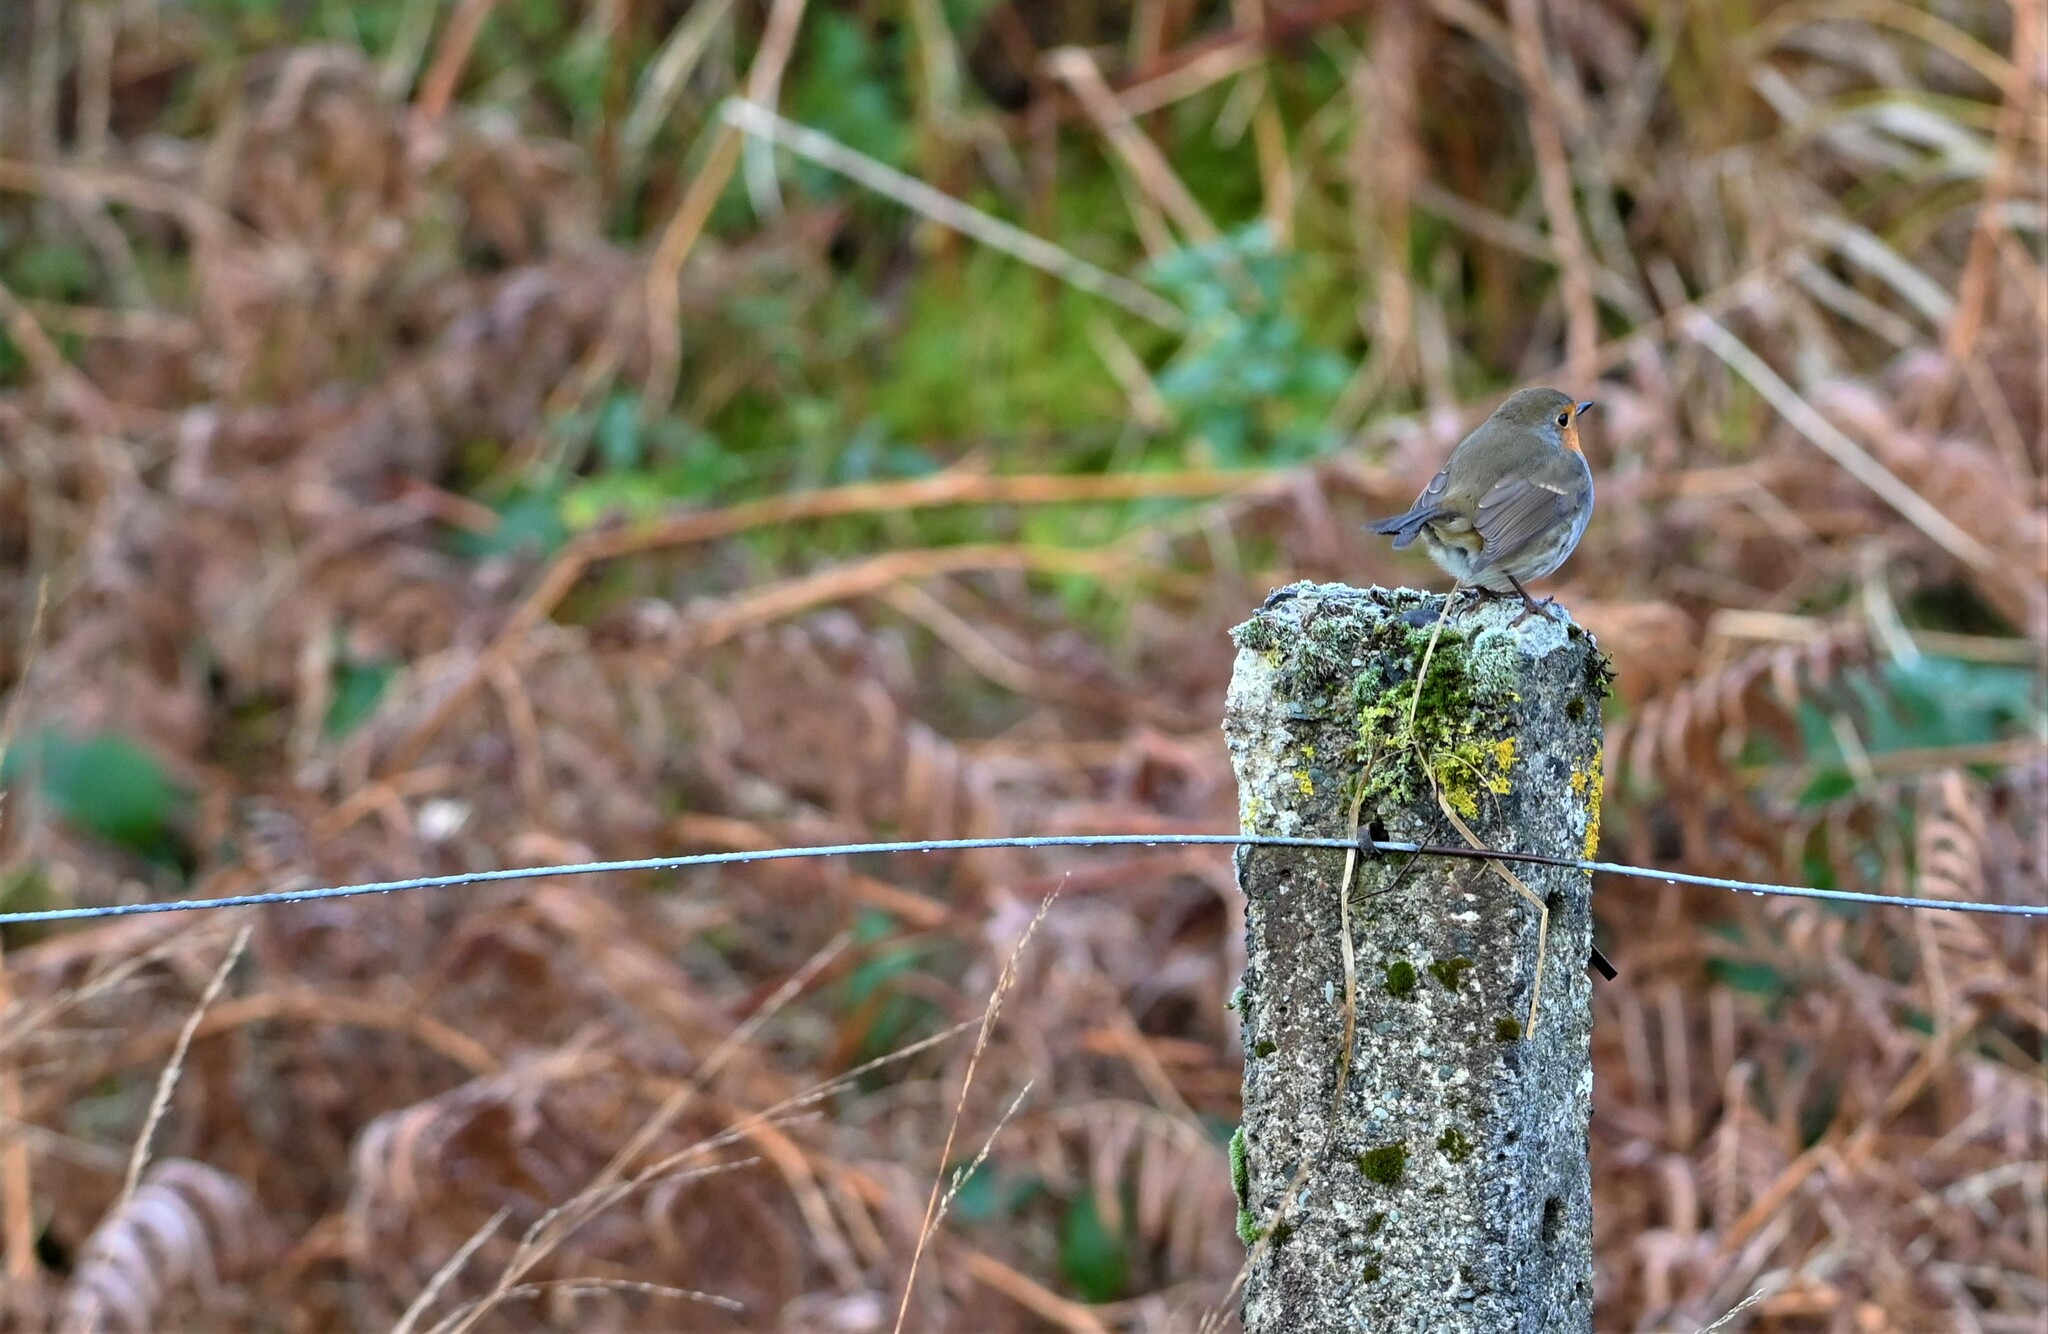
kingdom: Animalia
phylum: Chordata
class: Aves
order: Passeriformes
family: Muscicapidae
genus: Erithacus
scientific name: Erithacus rubecula
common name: European robin
